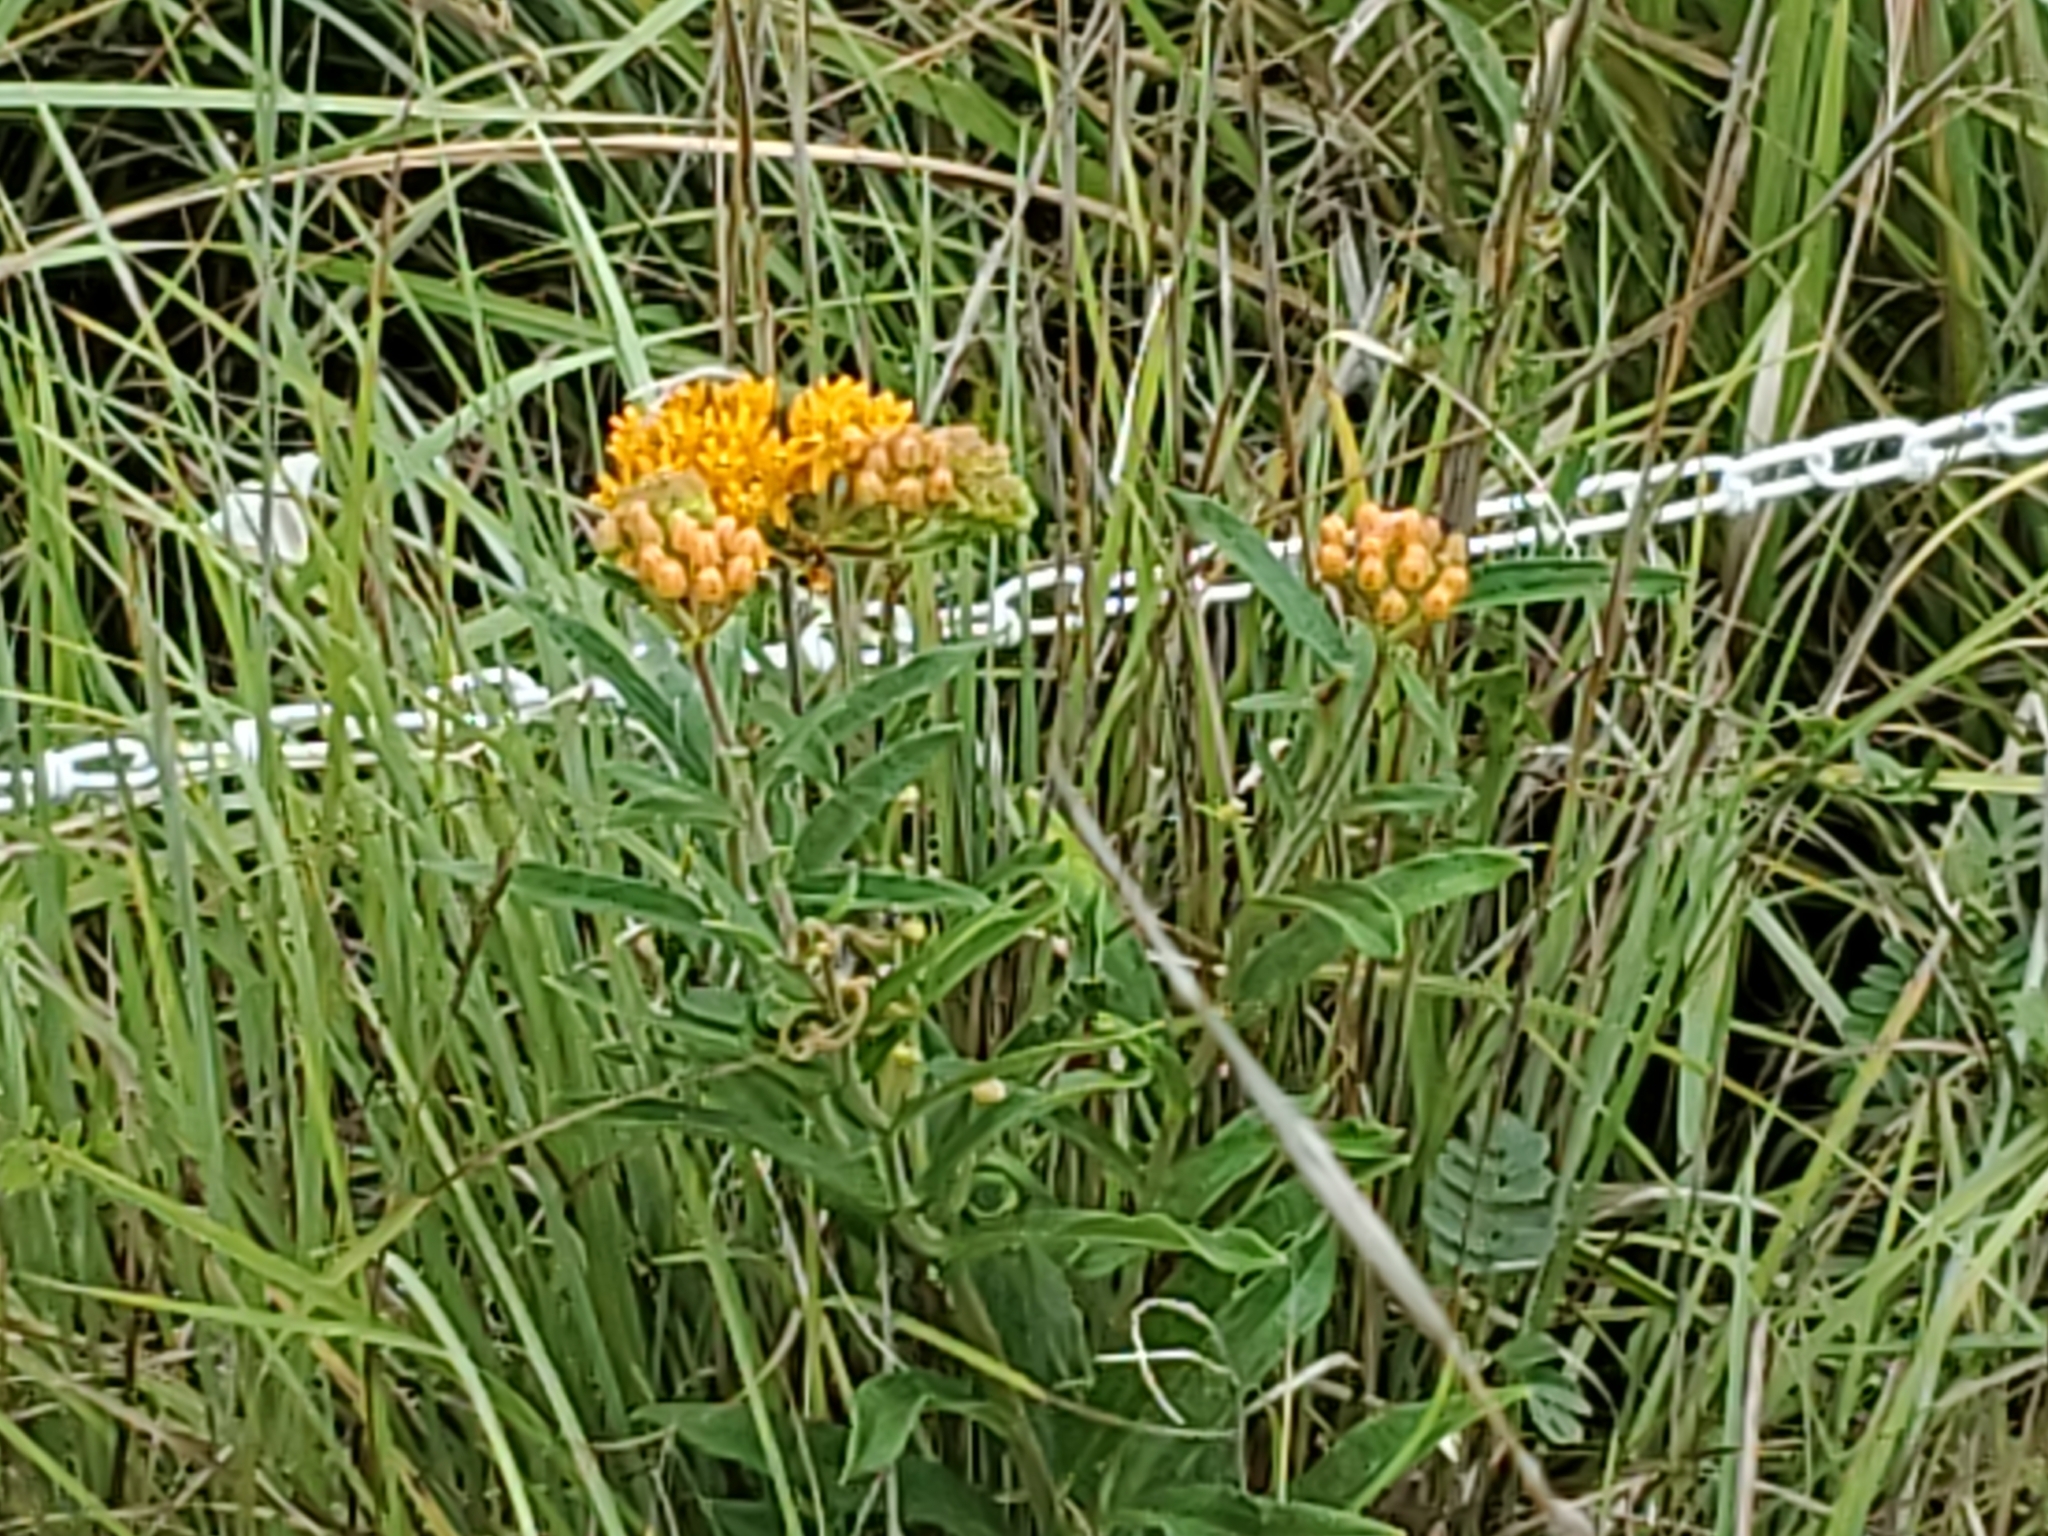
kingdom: Plantae
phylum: Tracheophyta
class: Magnoliopsida
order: Gentianales
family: Apocynaceae
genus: Asclepias
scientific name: Asclepias tuberosa
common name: Butterfly milkweed
